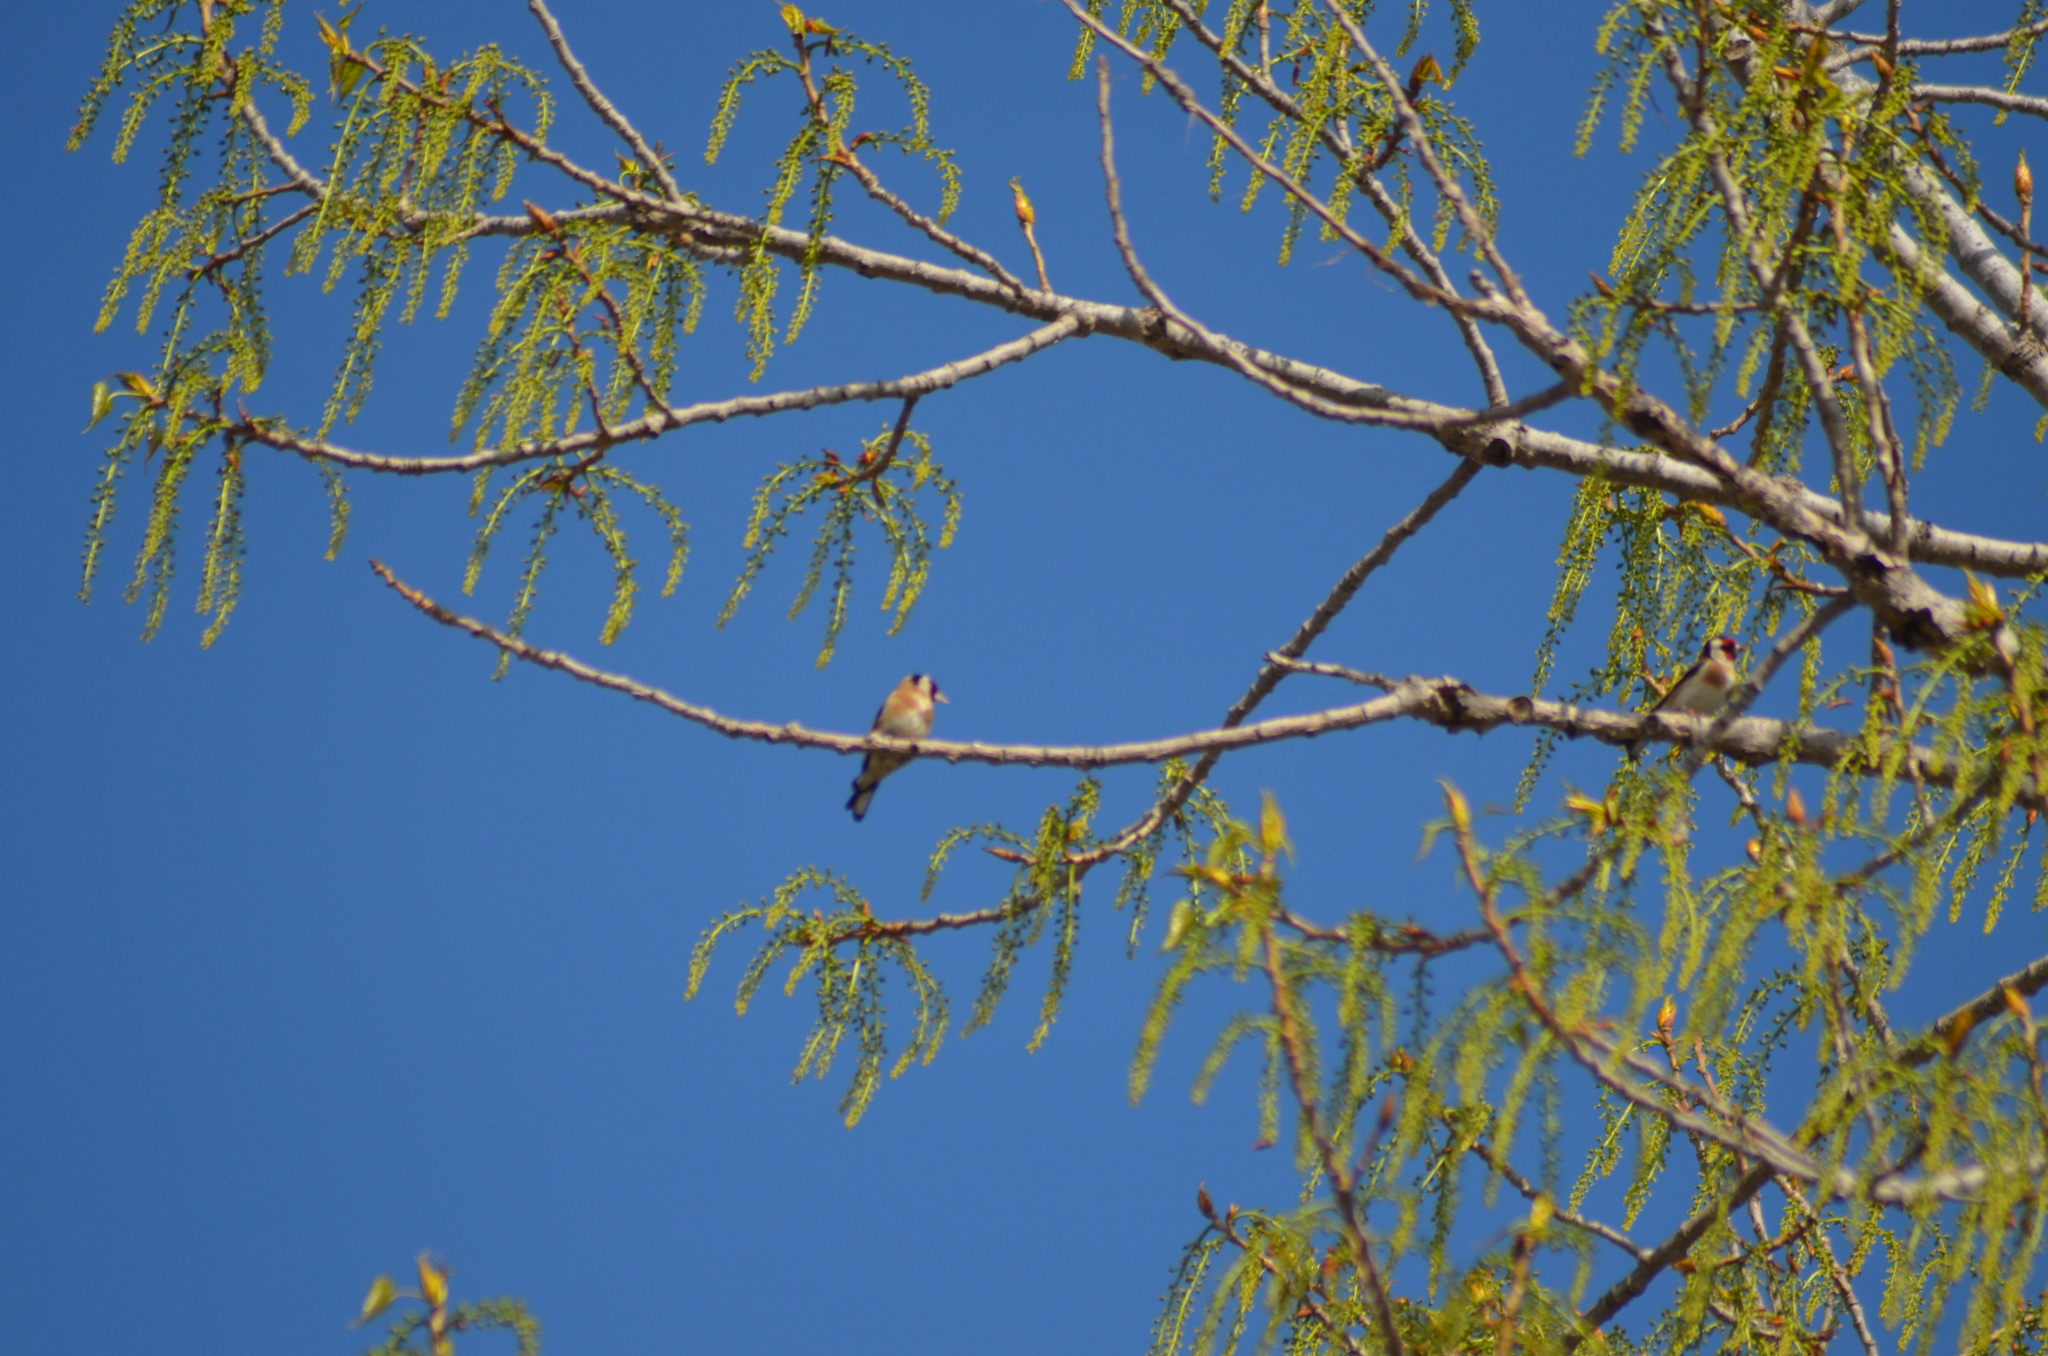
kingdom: Animalia
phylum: Chordata
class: Aves
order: Passeriformes
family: Fringillidae
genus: Carduelis
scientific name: Carduelis carduelis
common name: European goldfinch
